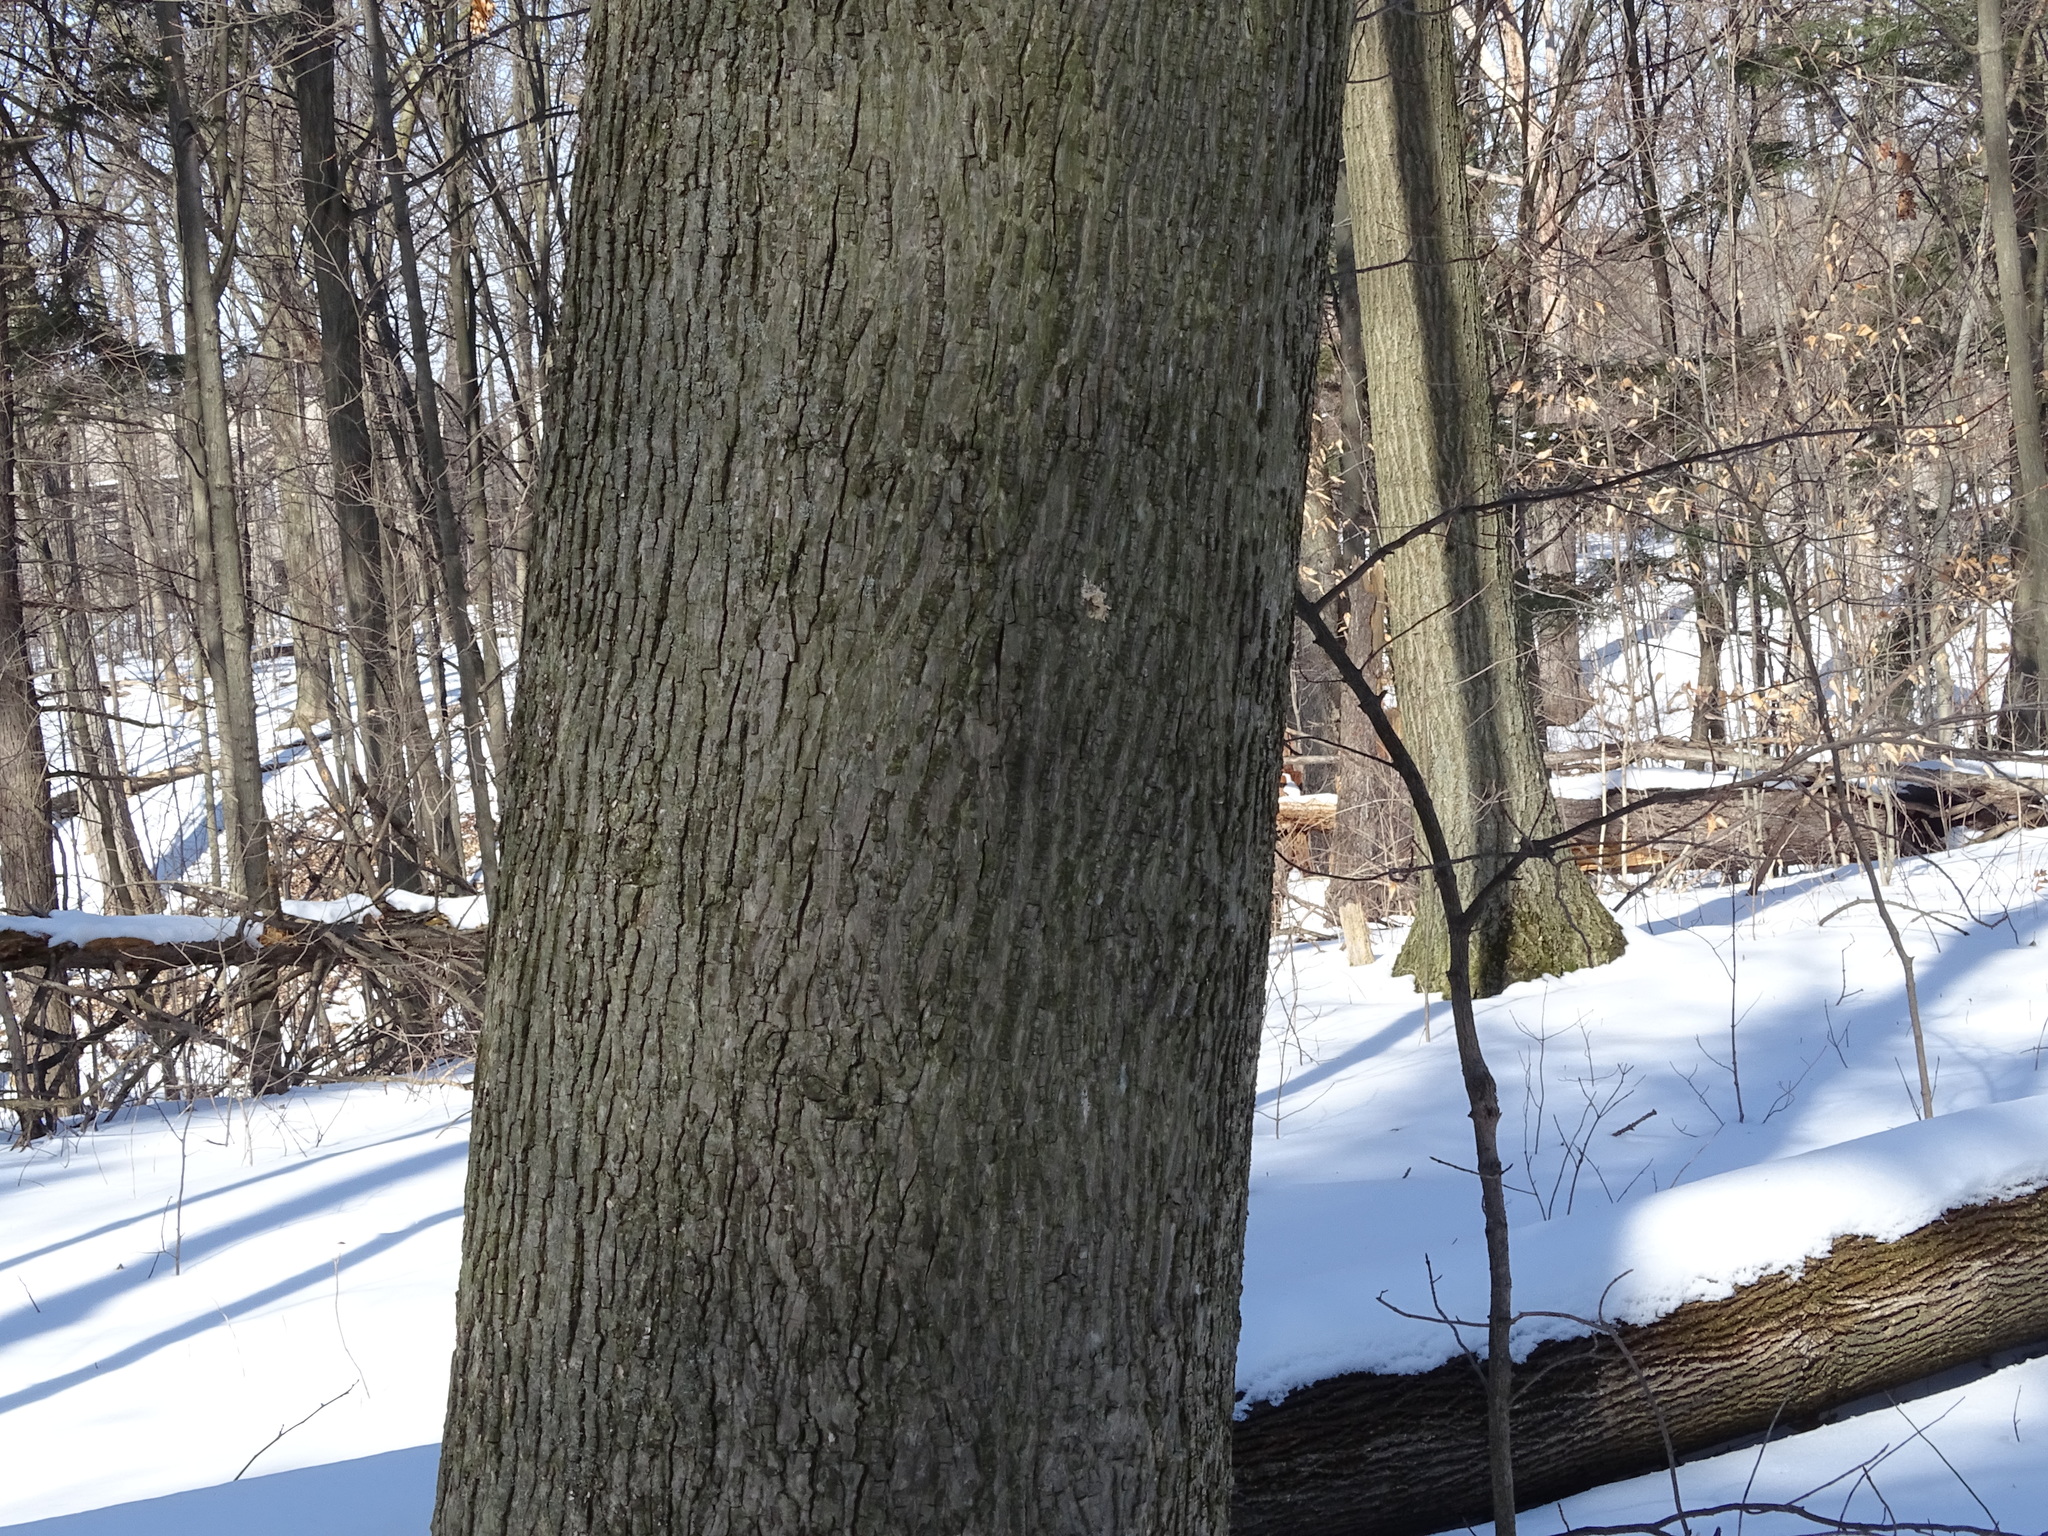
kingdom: Plantae
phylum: Tracheophyta
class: Magnoliopsida
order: Fagales
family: Juglandaceae
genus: Carya
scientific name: Carya cordiformis
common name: Bitternut hickory
